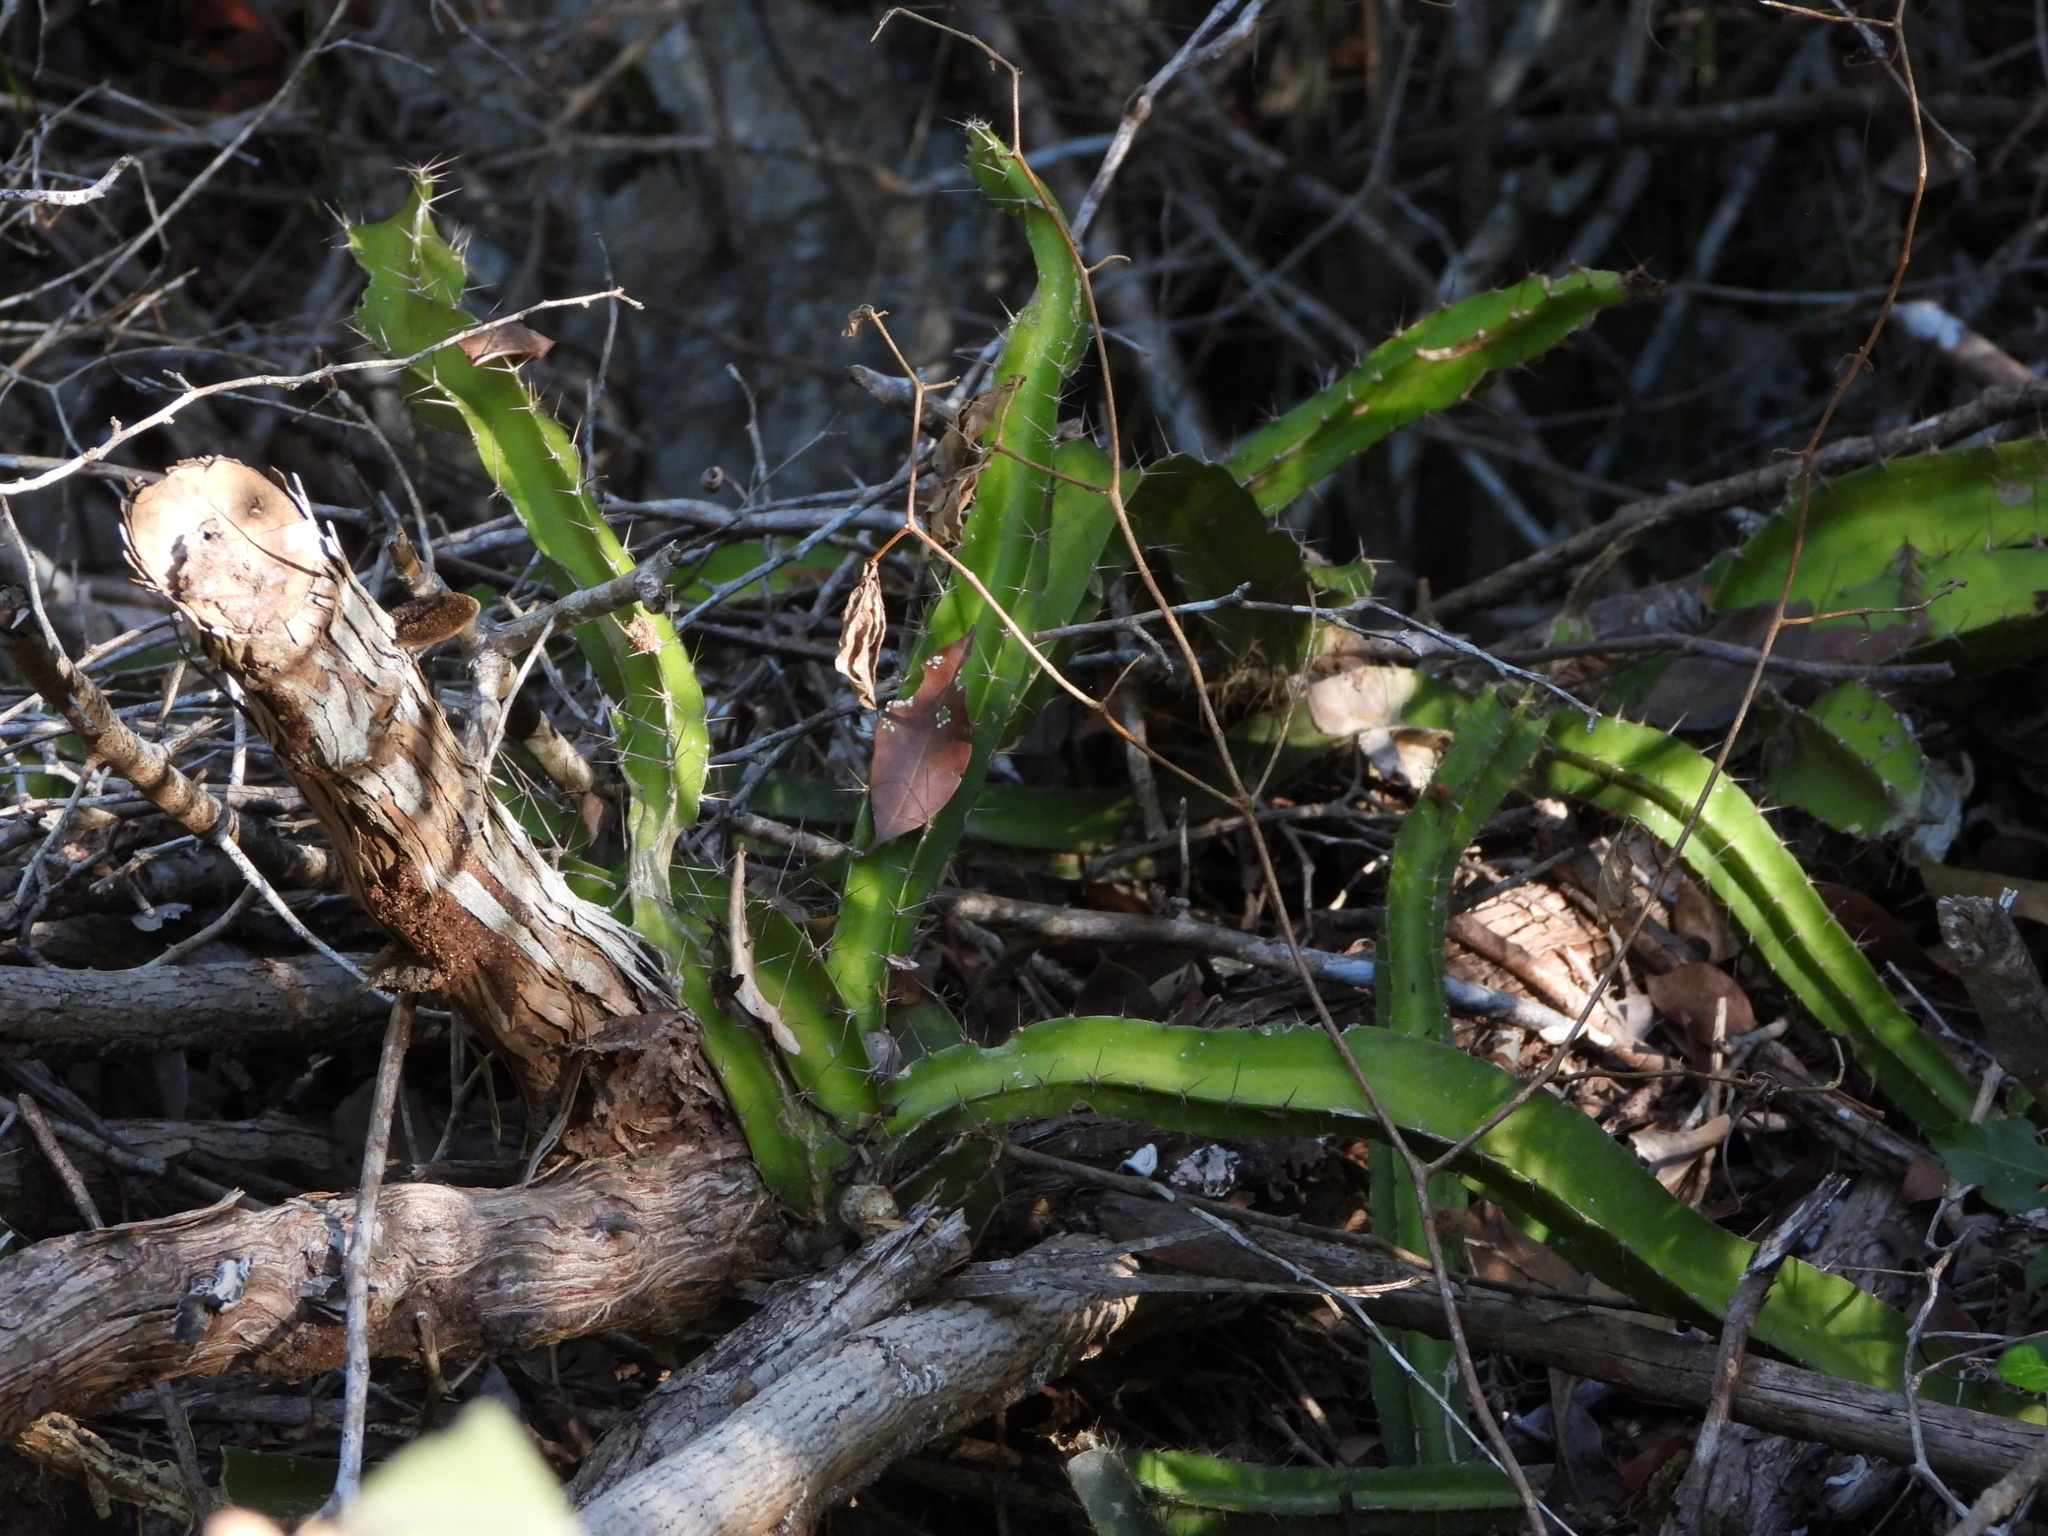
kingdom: Plantae
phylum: Tracheophyta
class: Magnoliopsida
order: Caryophyllales
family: Cactaceae
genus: Deamia
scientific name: Deamia testudo
